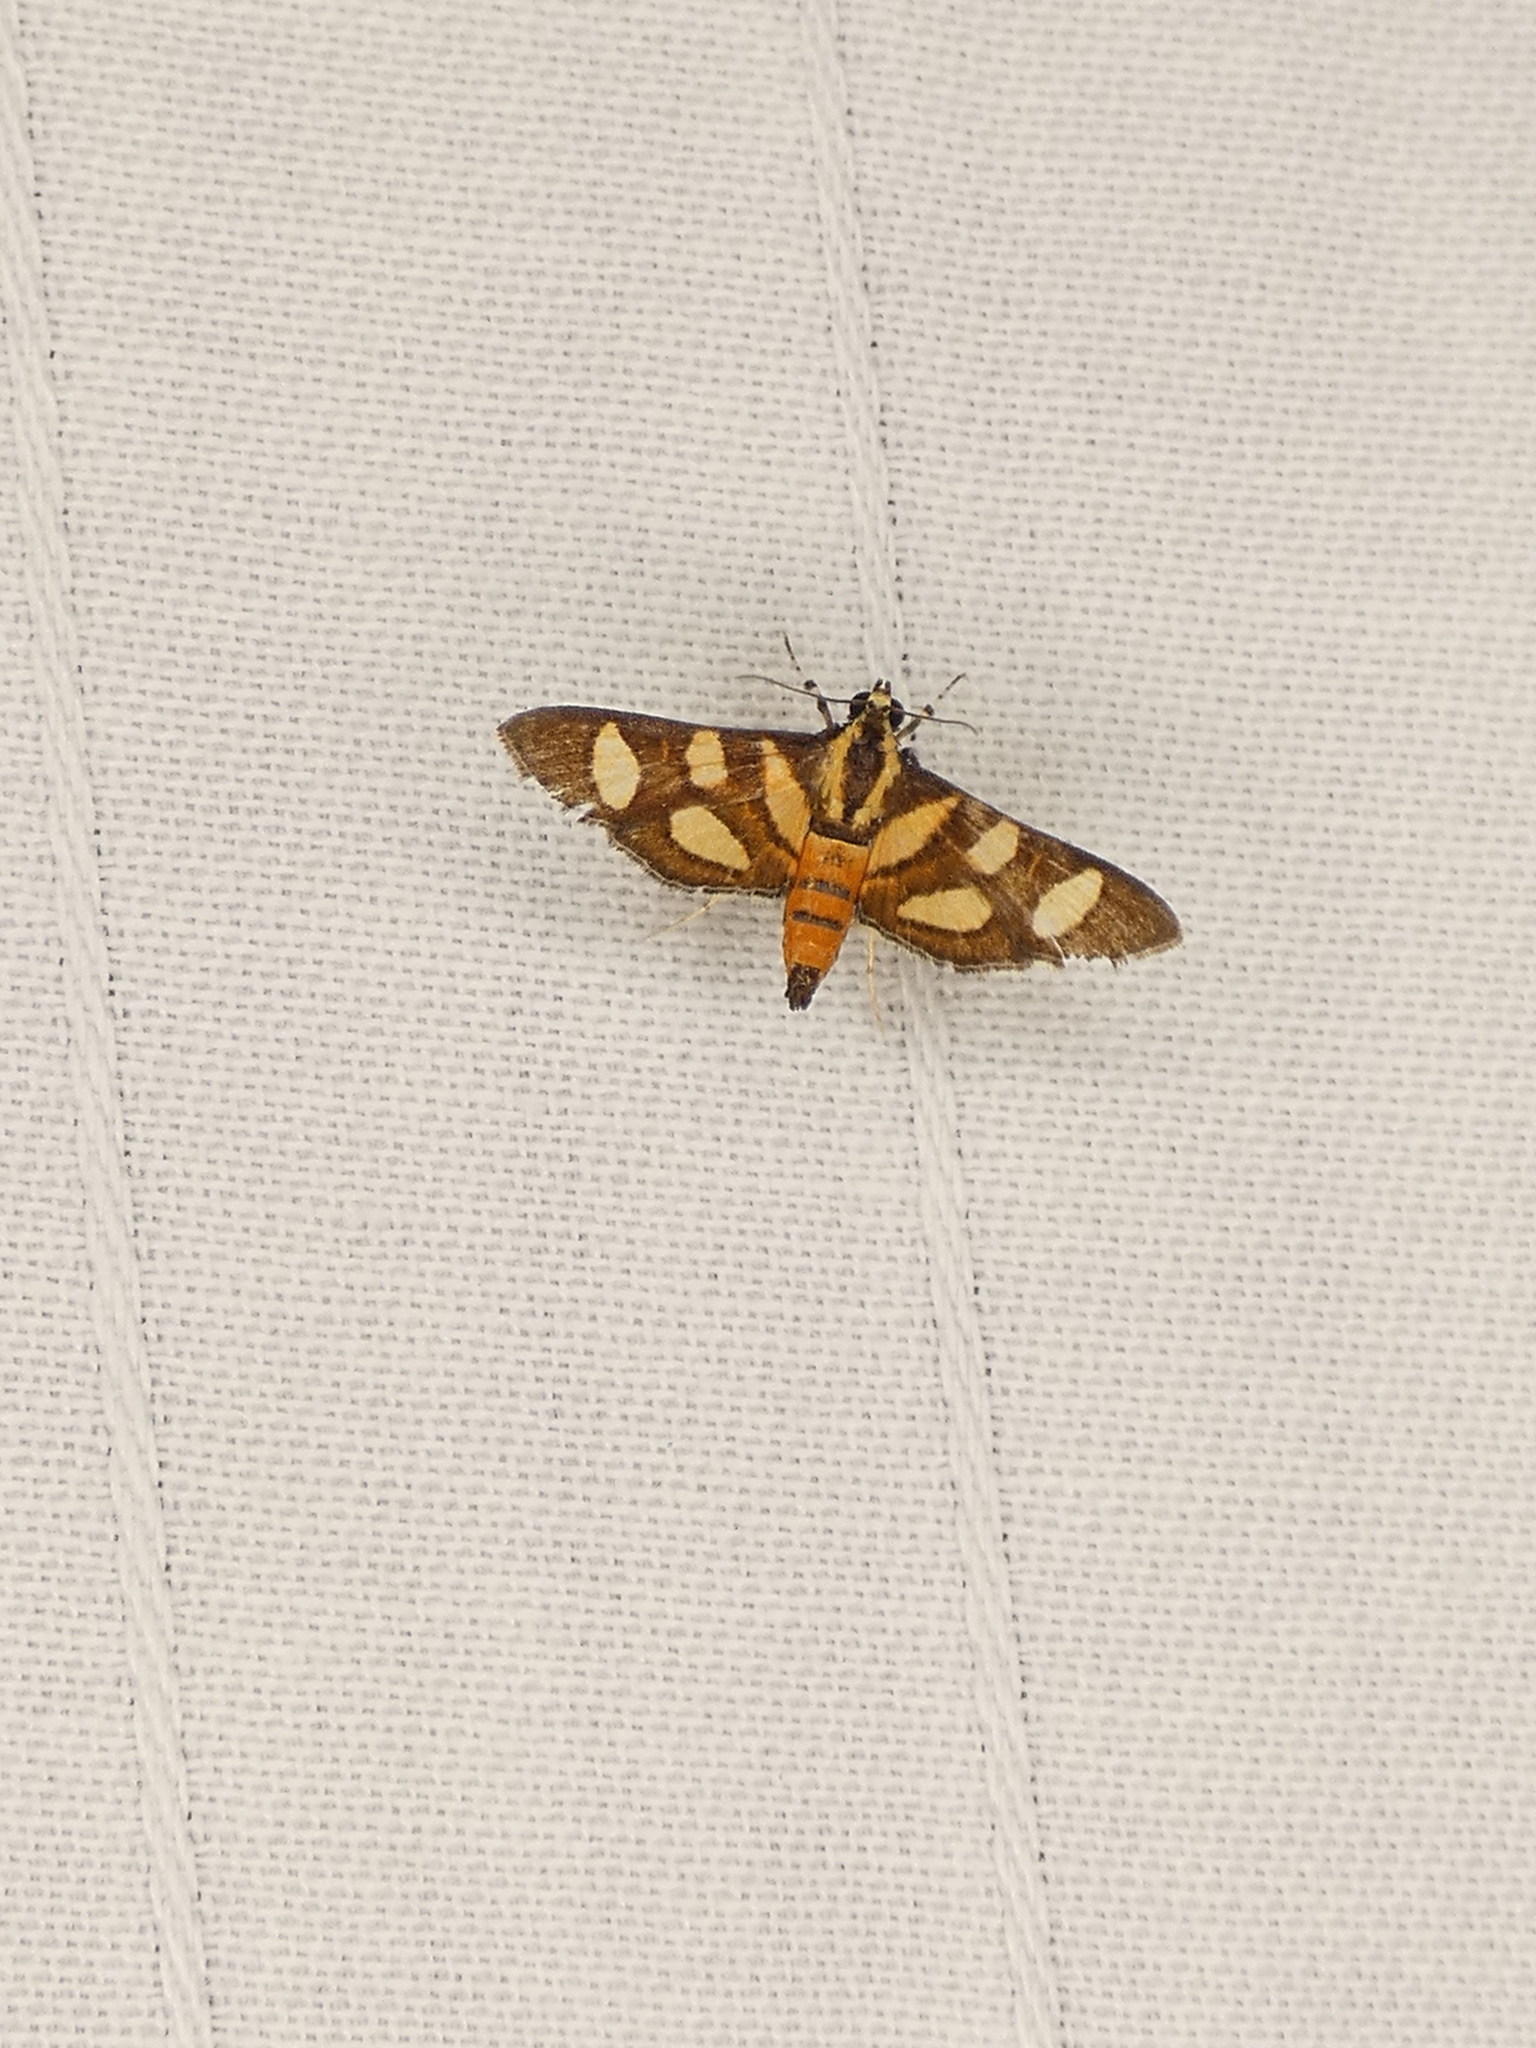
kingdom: Animalia
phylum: Arthropoda
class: Insecta
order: Lepidoptera
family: Crambidae
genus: Syngamia
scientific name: Syngamia florella
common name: Orange-spotted flower moth
